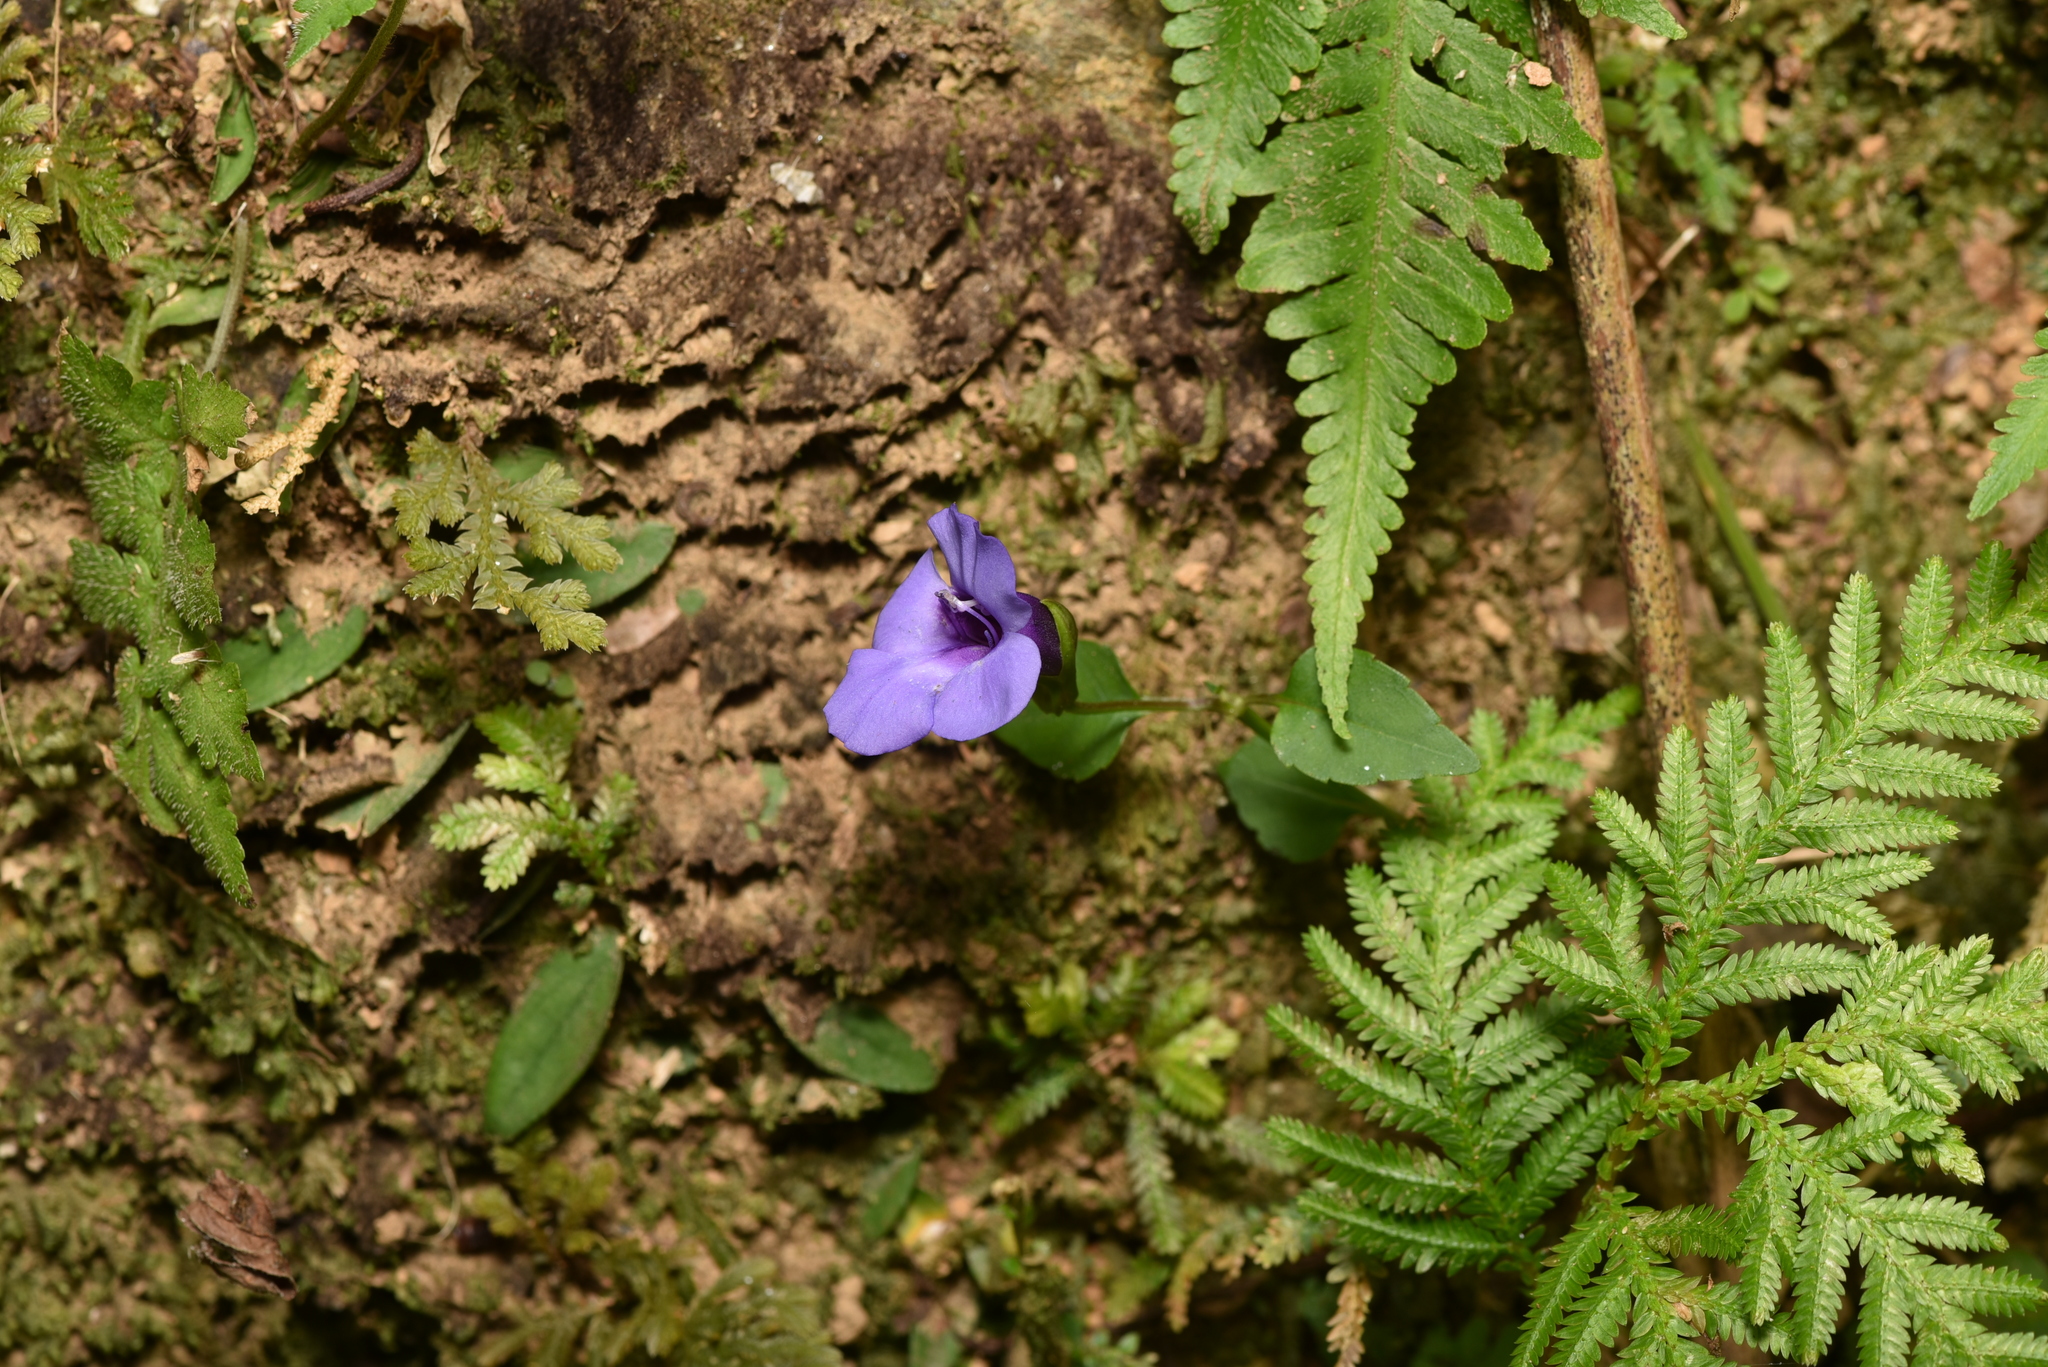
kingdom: Plantae
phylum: Tracheophyta
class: Magnoliopsida
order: Lamiales
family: Linderniaceae
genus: Torenia
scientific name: Torenia concolor
